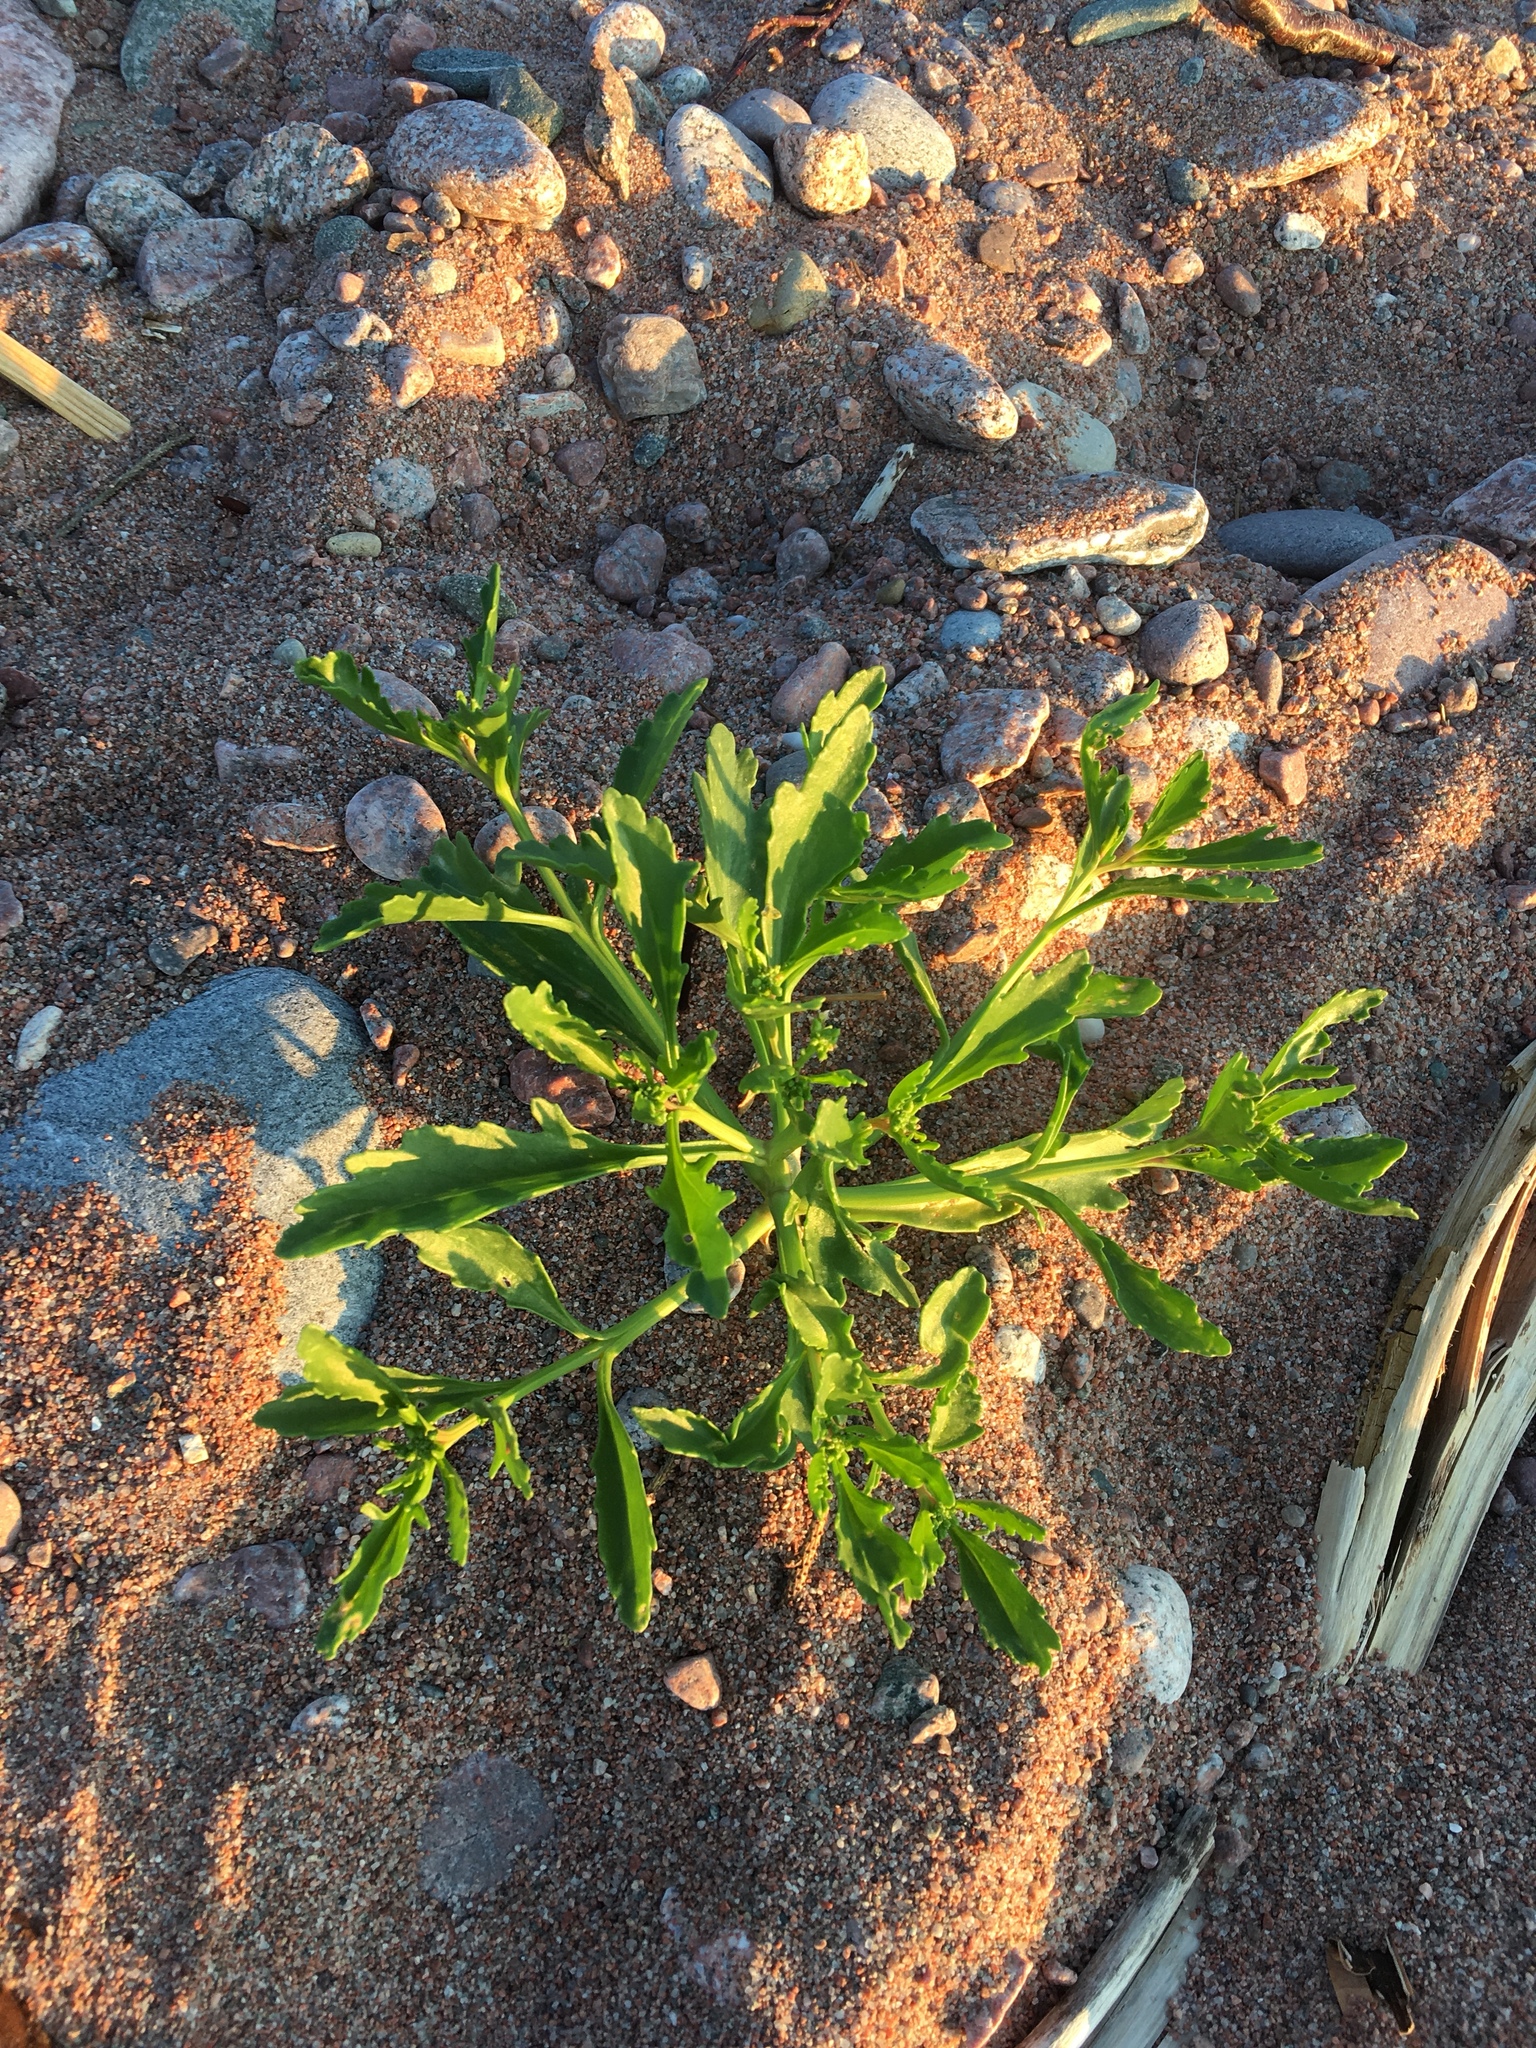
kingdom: Plantae
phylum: Tracheophyta
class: Magnoliopsida
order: Brassicales
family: Brassicaceae
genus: Cakile
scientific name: Cakile edentula
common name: American sea rocket
